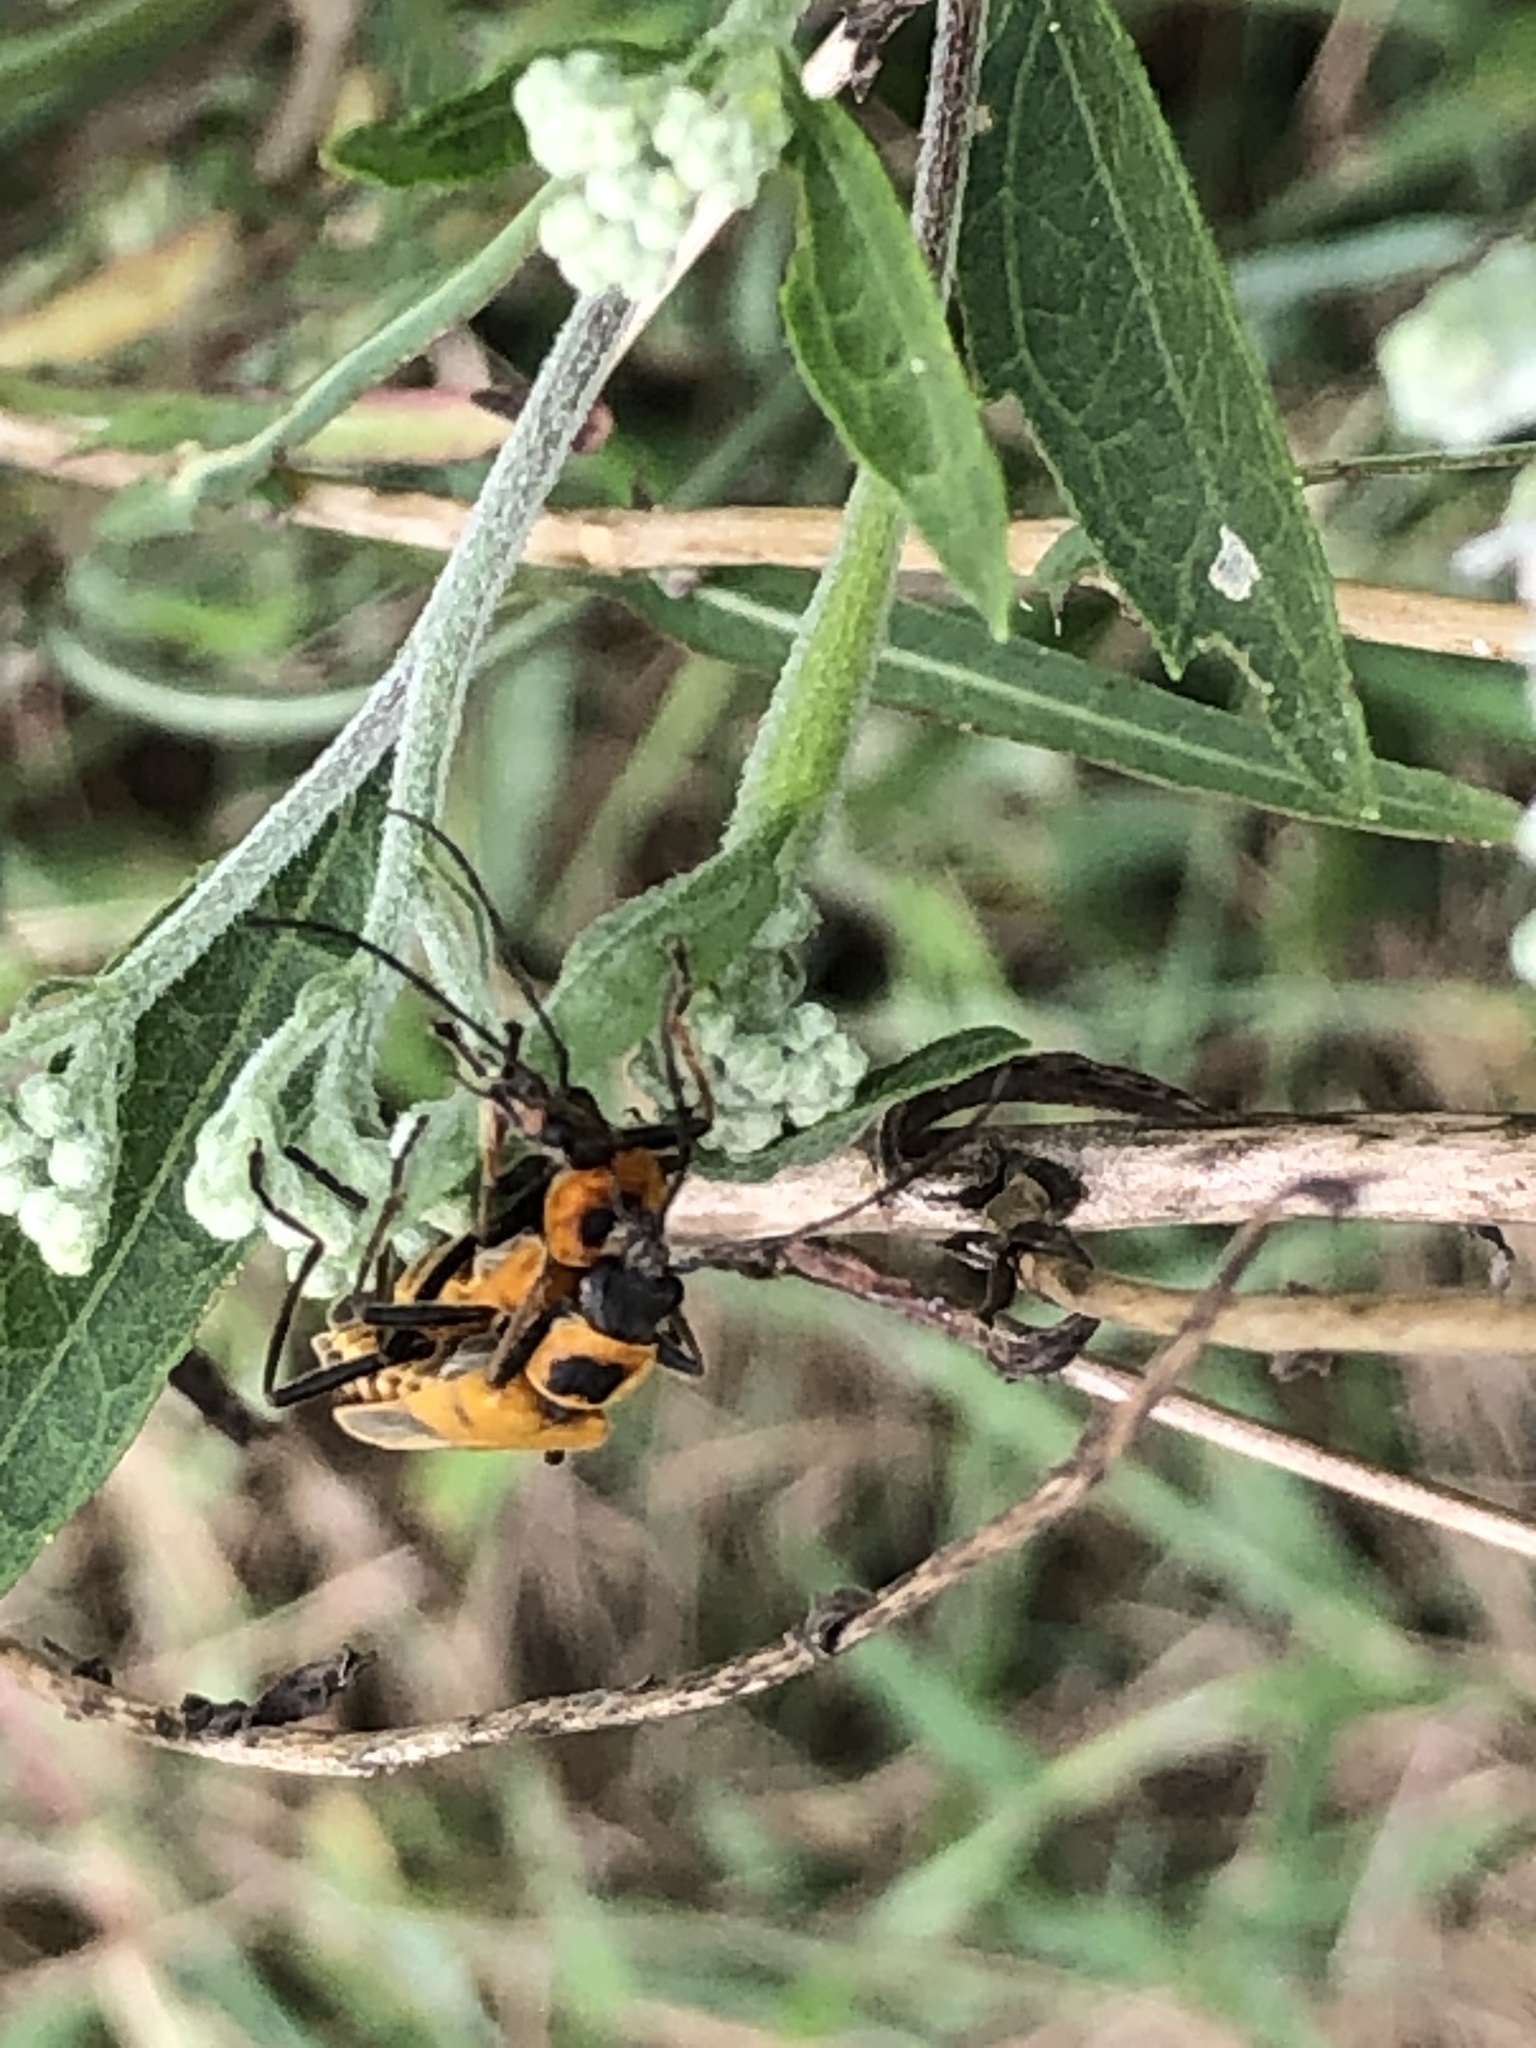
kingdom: Animalia
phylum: Arthropoda
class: Insecta
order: Coleoptera
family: Cantharidae
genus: Chauliognathus
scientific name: Chauliognathus pensylvanicus
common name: Goldenrod soldier beetle
